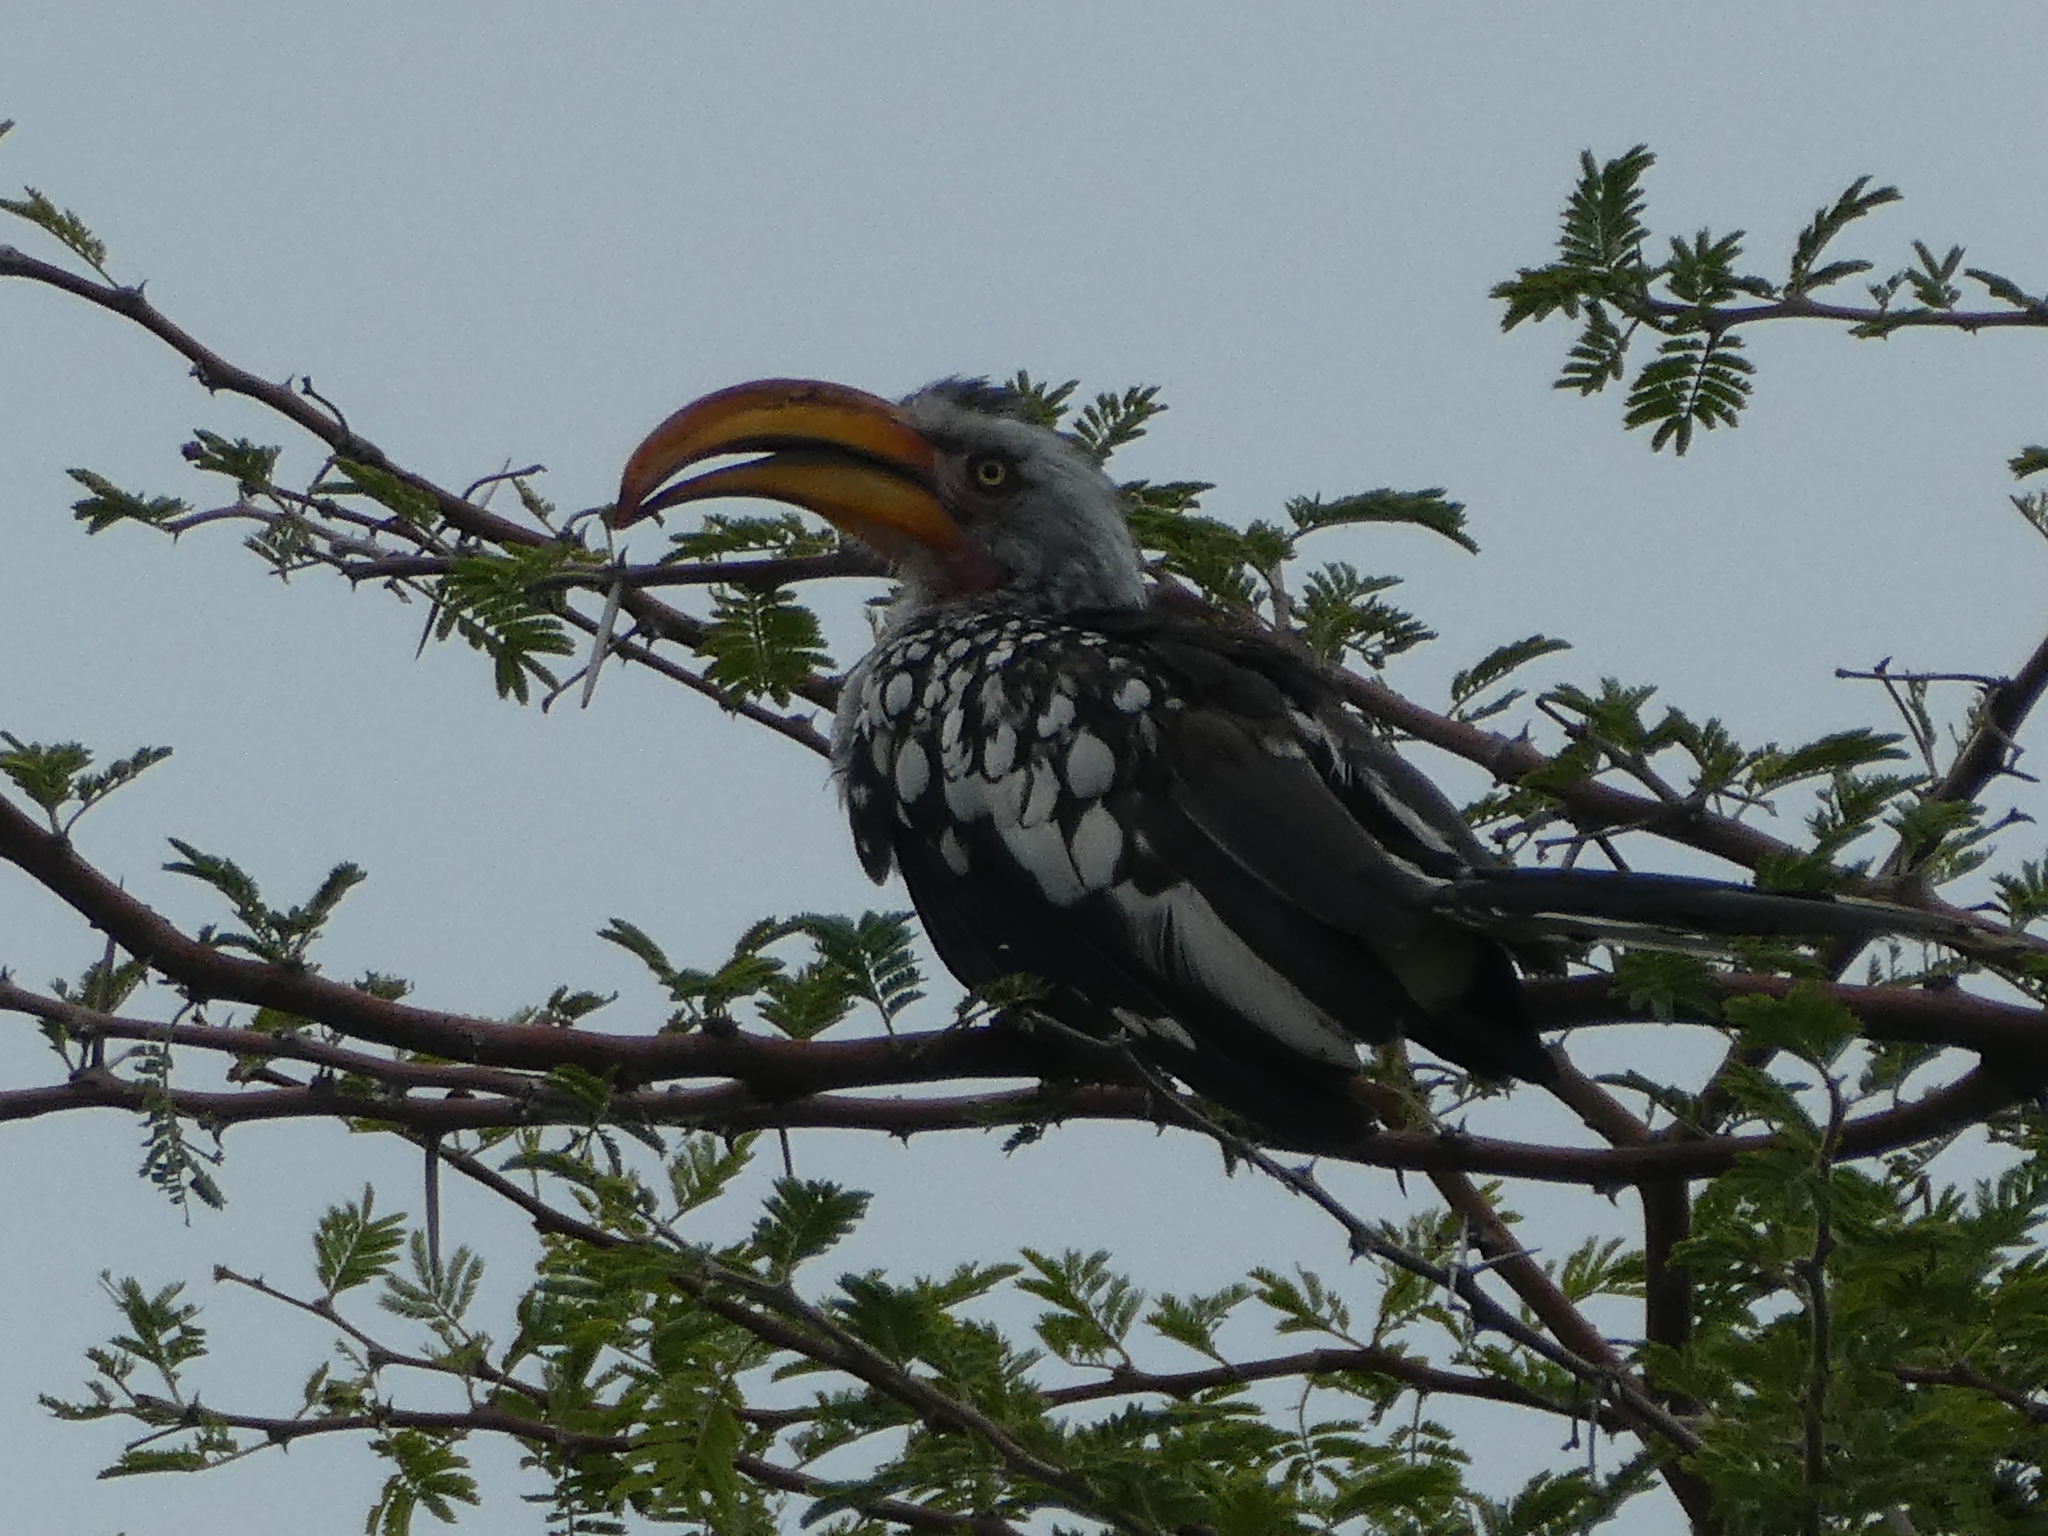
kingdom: Animalia
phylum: Chordata
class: Aves
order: Bucerotiformes
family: Bucerotidae
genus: Tockus
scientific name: Tockus leucomelas
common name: Southern yellow-billed hornbill
